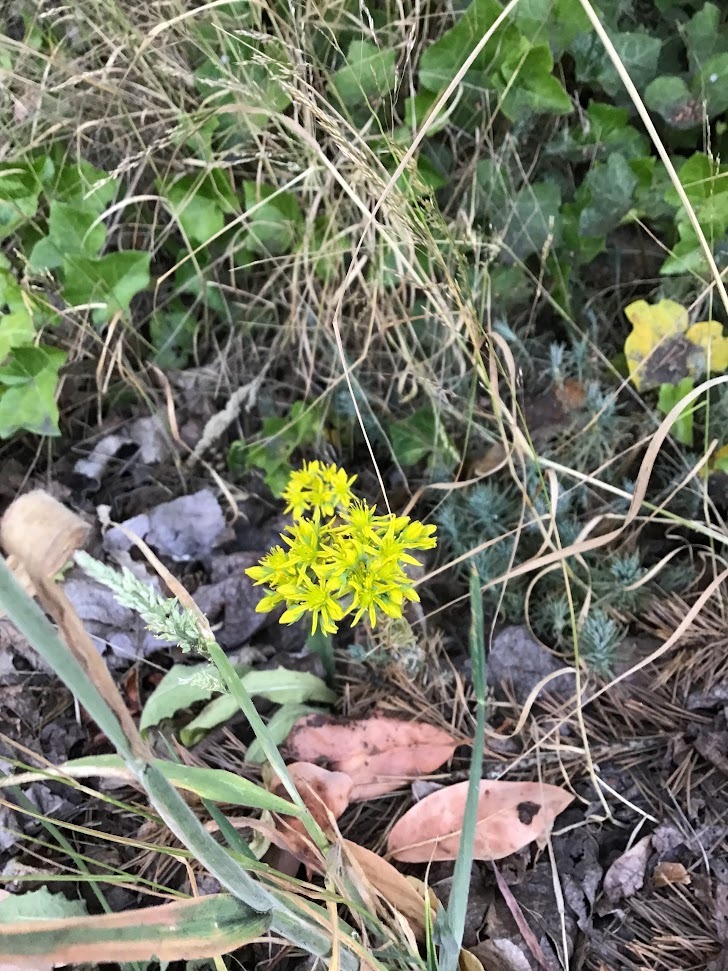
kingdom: Plantae
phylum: Tracheophyta
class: Magnoliopsida
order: Saxifragales
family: Crassulaceae
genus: Petrosedum
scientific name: Petrosedum rupestre
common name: Jenny's stonecrop
